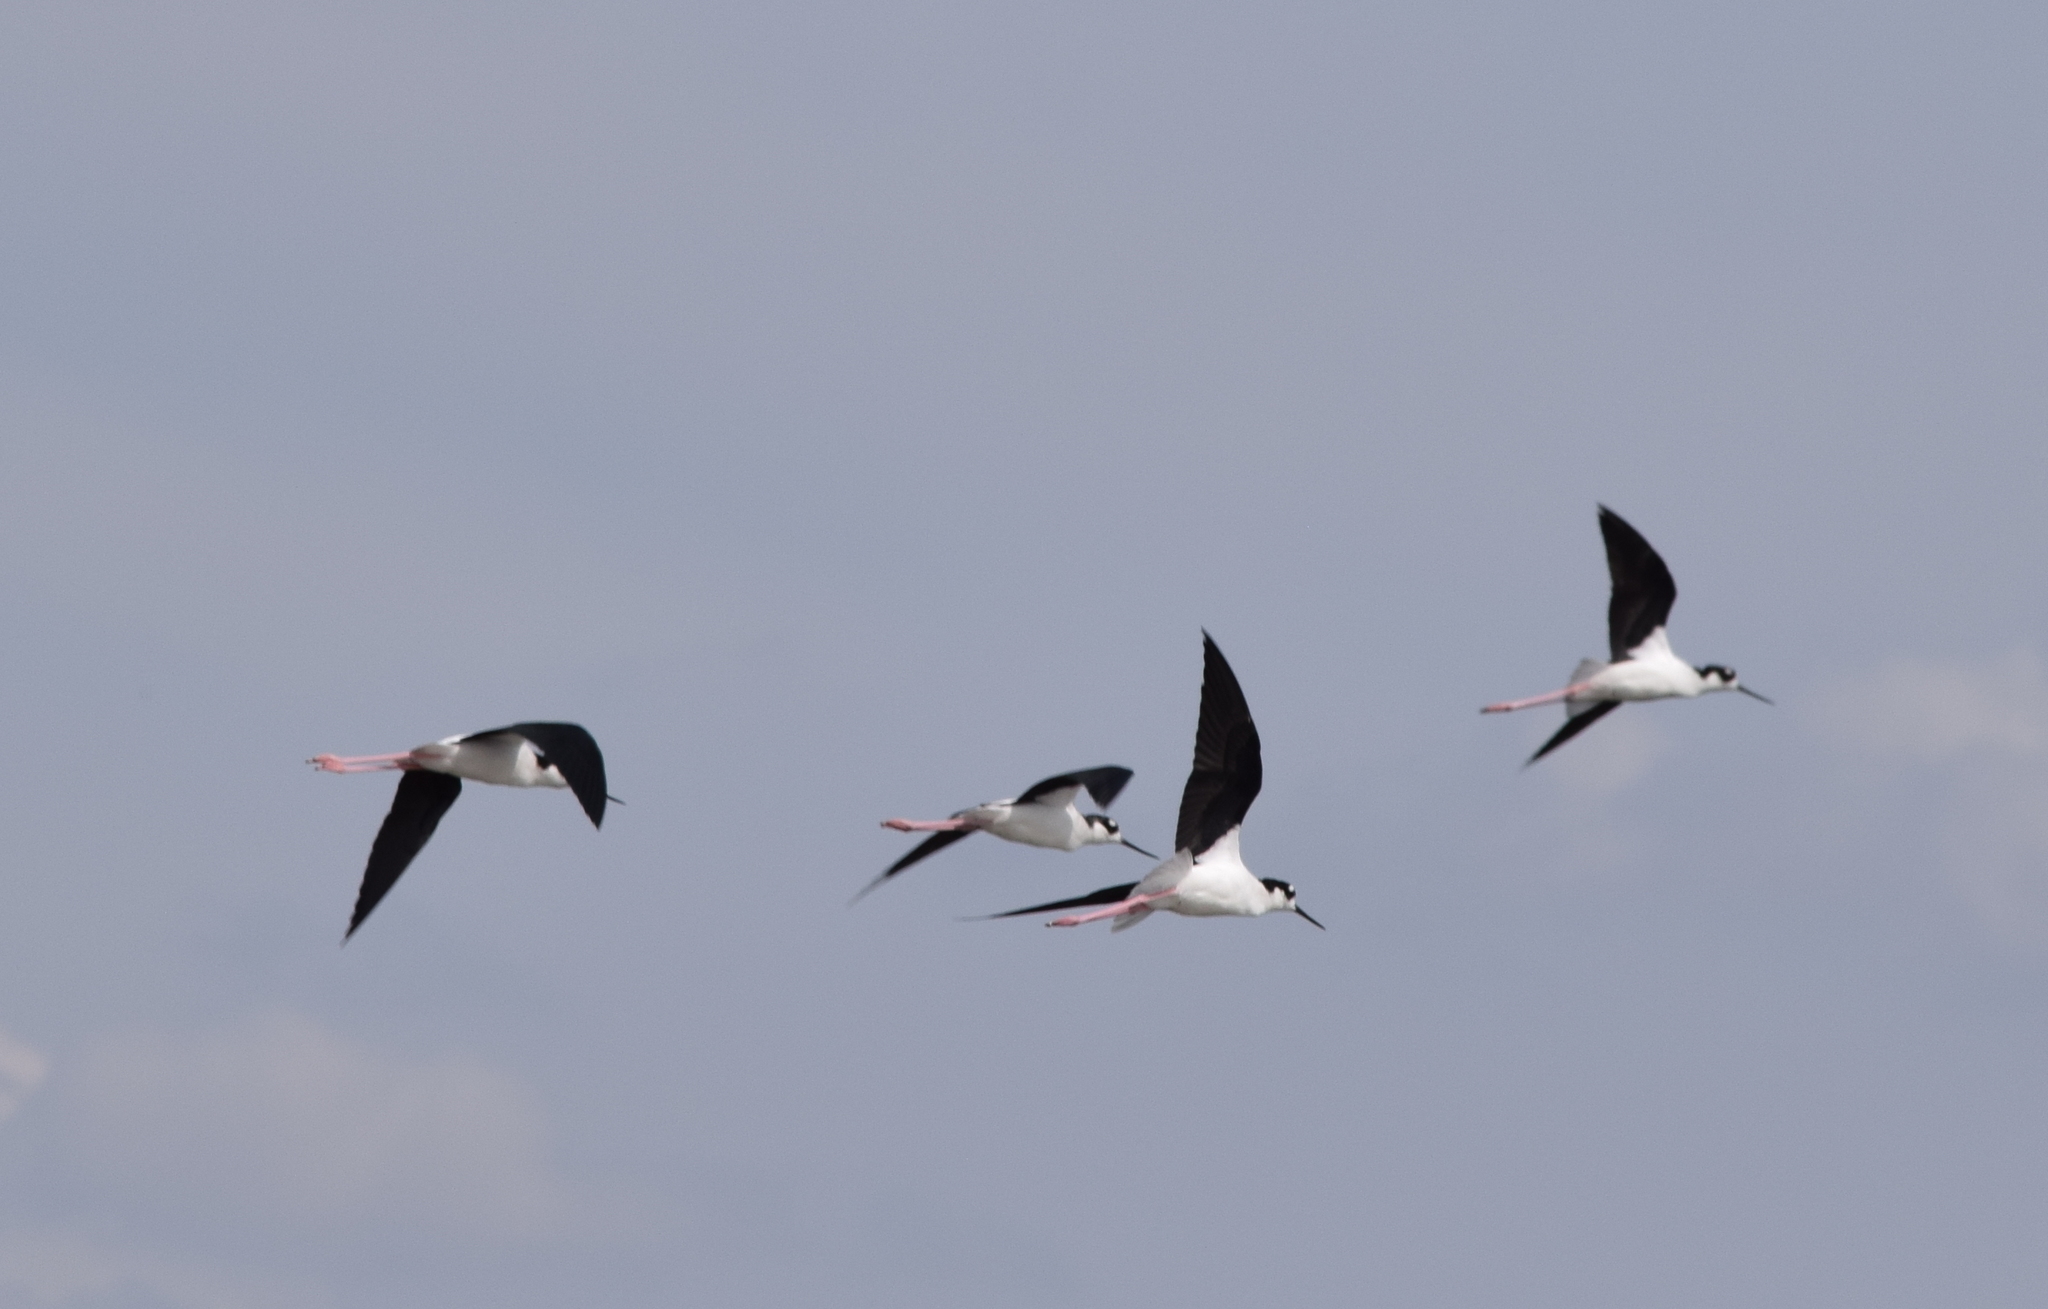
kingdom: Animalia
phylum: Chordata
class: Aves
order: Charadriiformes
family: Recurvirostridae
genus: Himantopus
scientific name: Himantopus mexicanus
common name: Black-necked stilt
